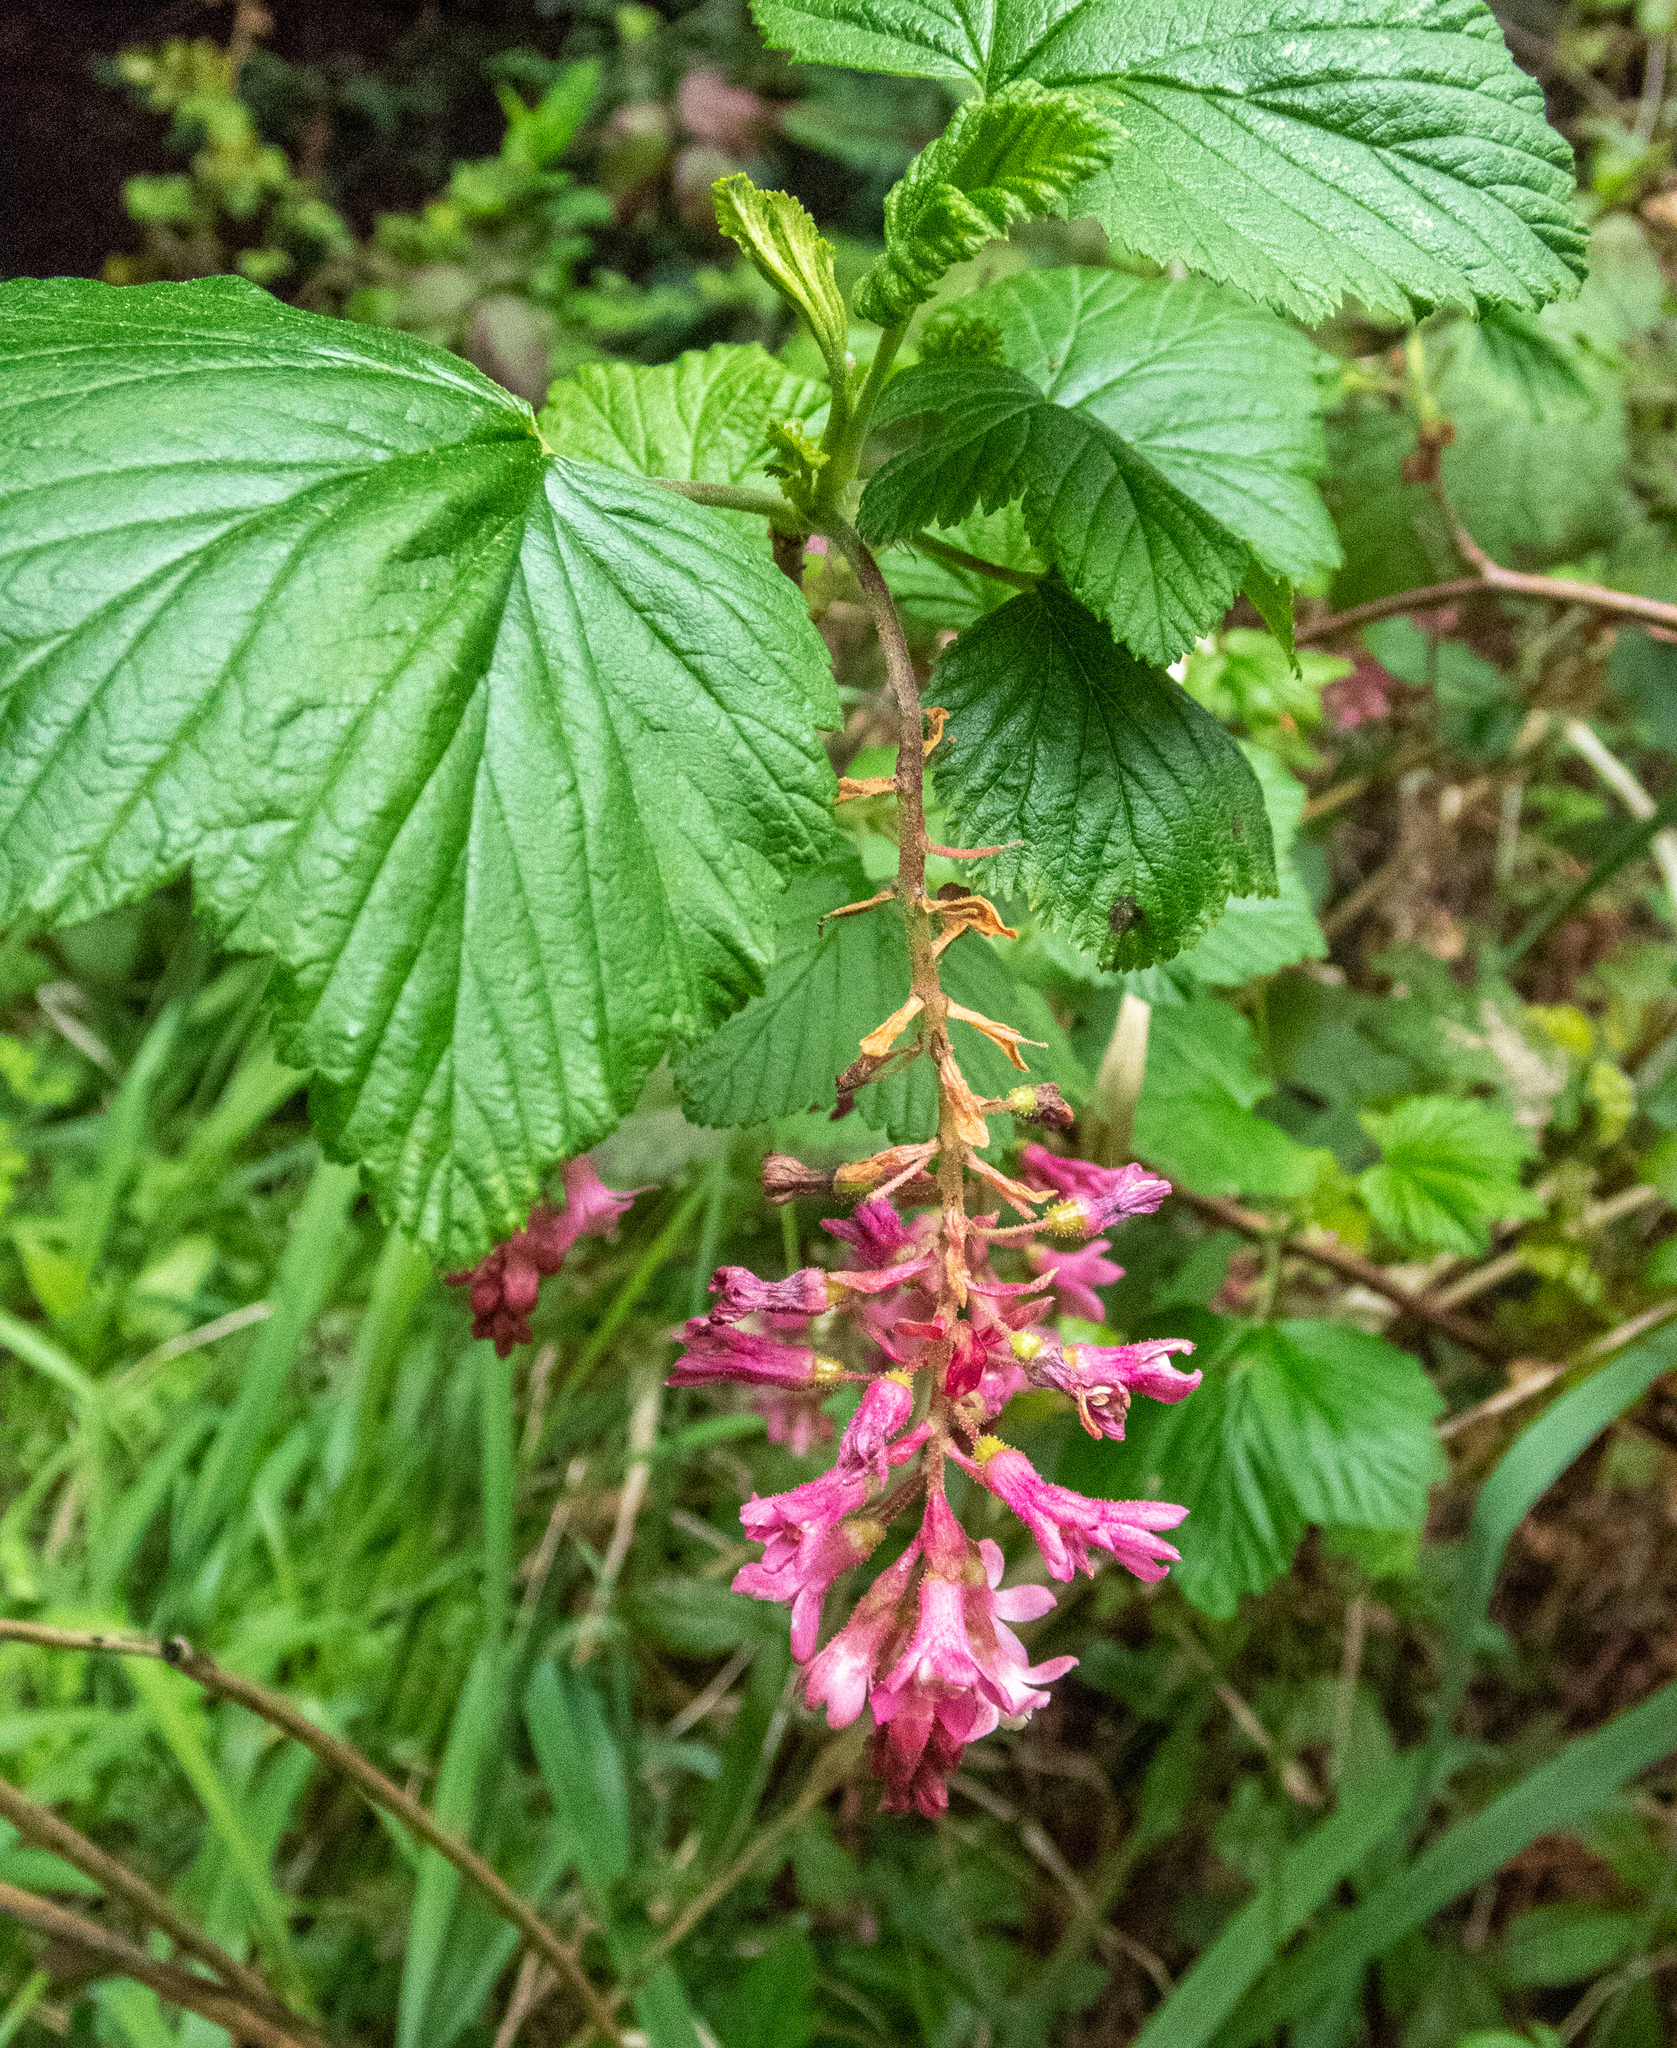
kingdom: Plantae
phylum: Tracheophyta
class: Magnoliopsida
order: Saxifragales
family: Grossulariaceae
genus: Ribes
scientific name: Ribes sanguineum
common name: Flowering currant
